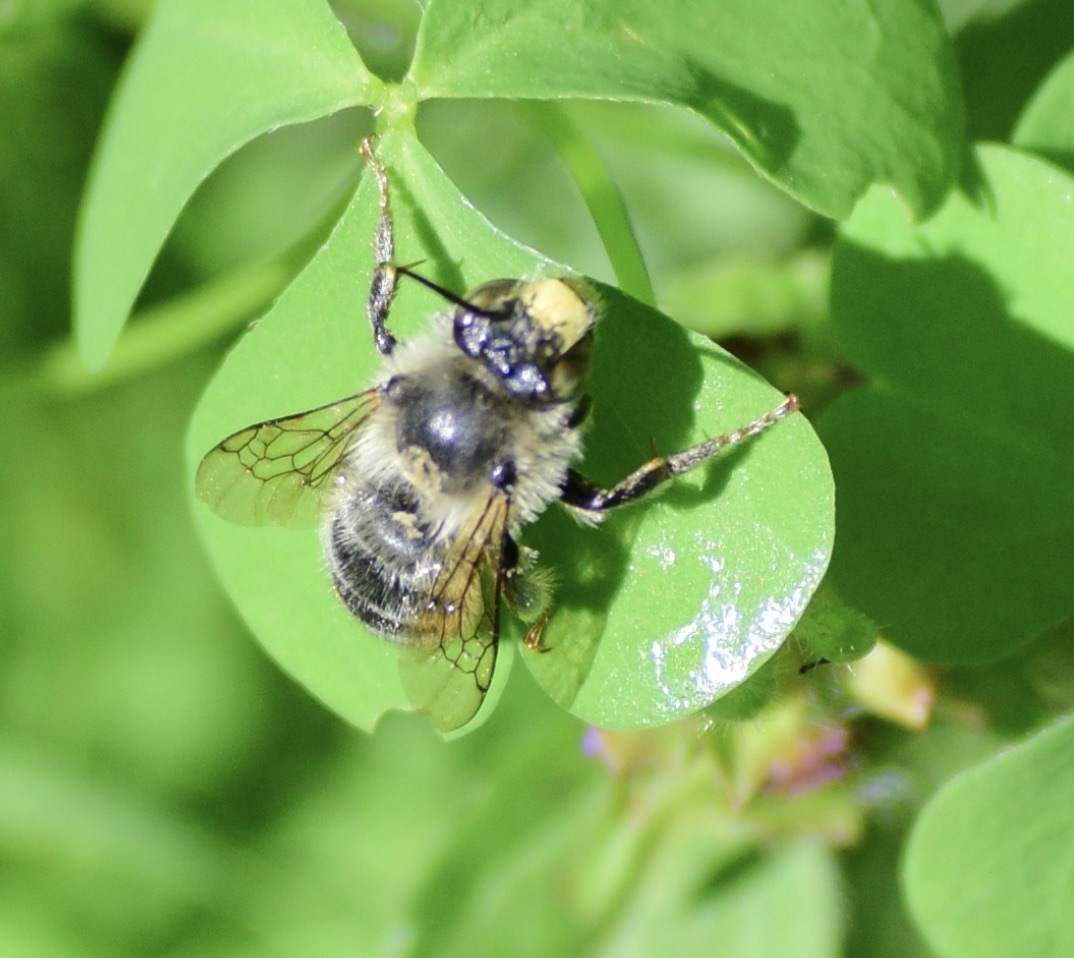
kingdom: Animalia
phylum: Arthropoda
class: Insecta
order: Hymenoptera
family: Apidae
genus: Anthophora
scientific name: Anthophora terminalis
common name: Orange-tipped wood-digger bee
